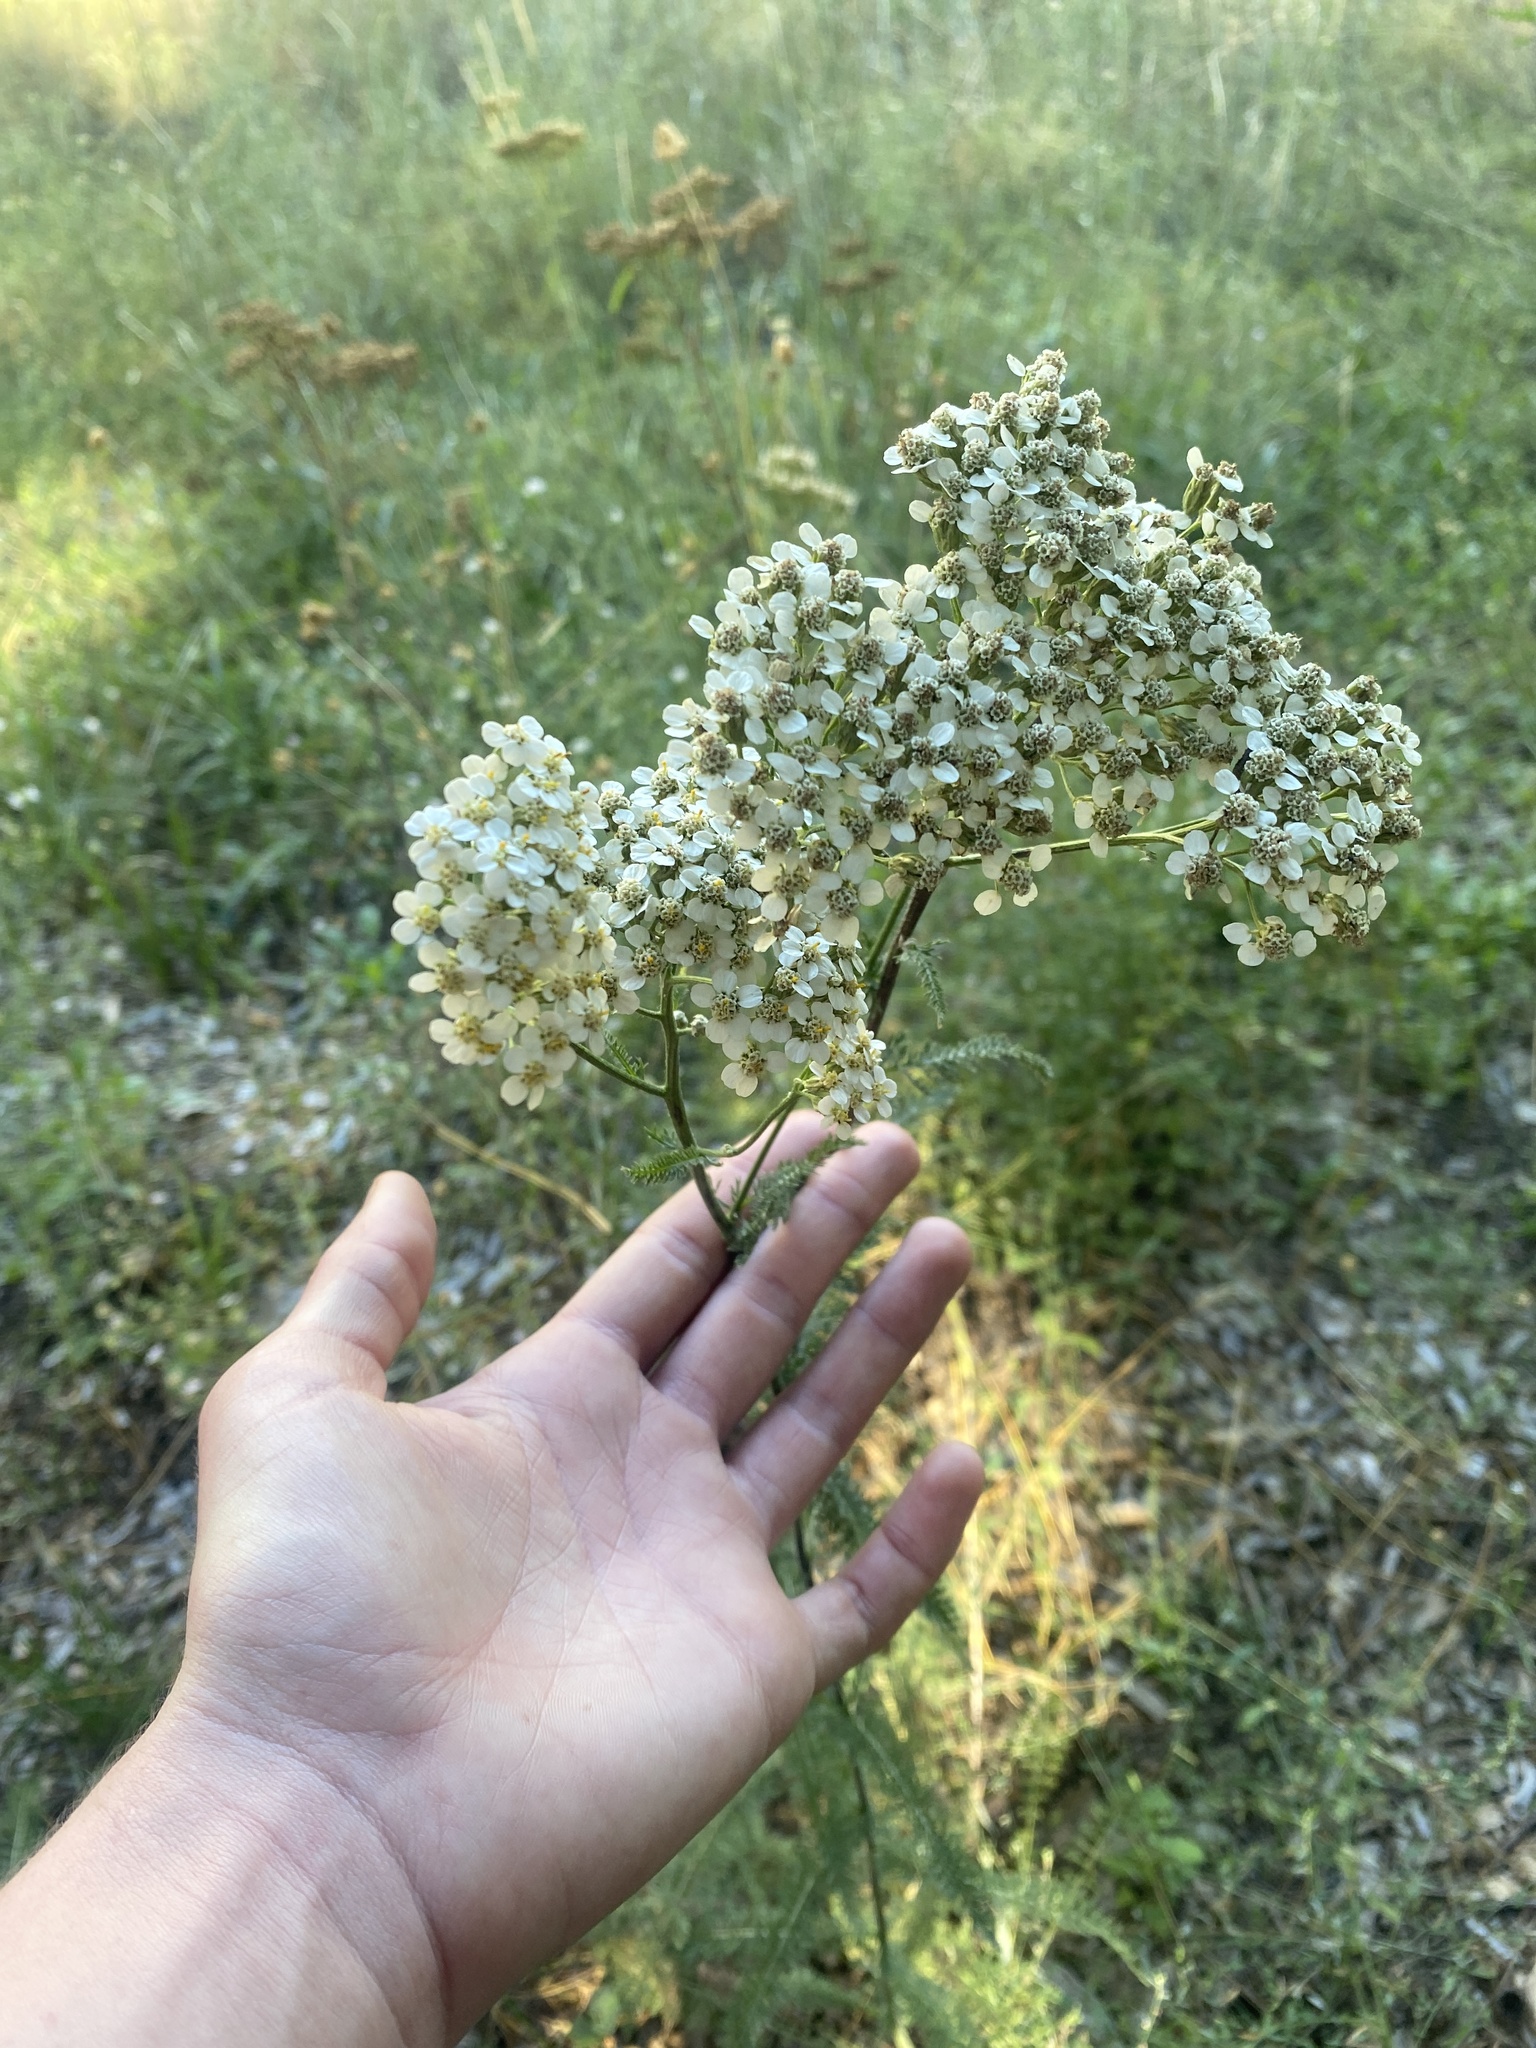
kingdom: Plantae
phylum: Tracheophyta
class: Magnoliopsida
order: Asterales
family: Asteraceae
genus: Achillea
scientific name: Achillea millefolium
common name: Yarrow
